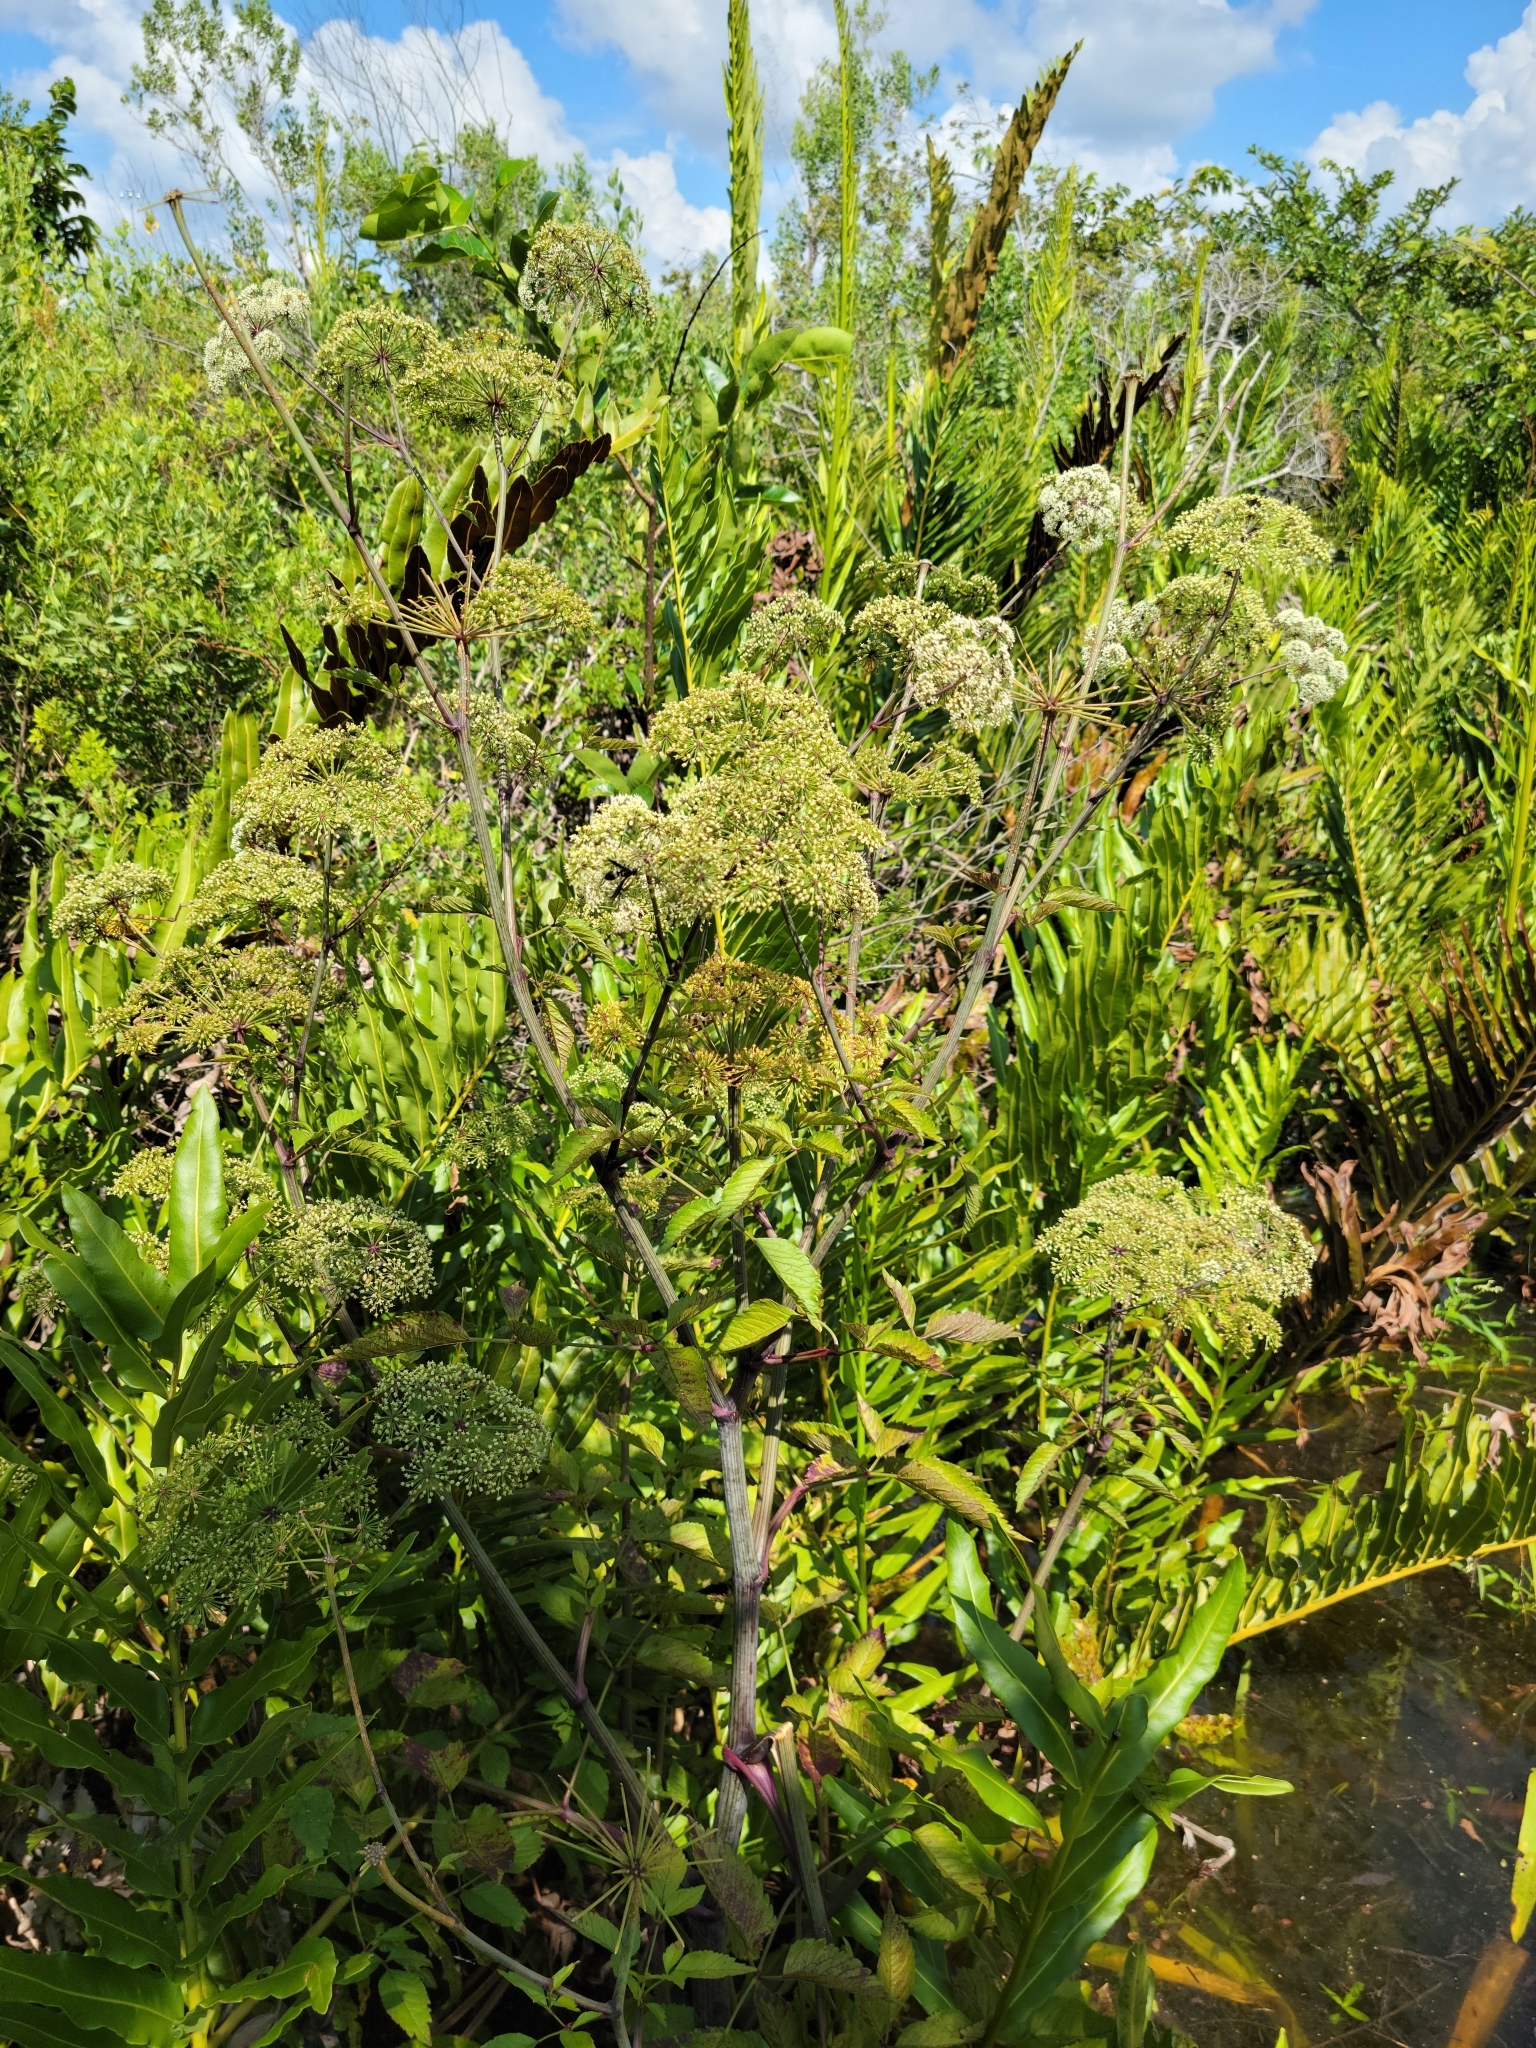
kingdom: Plantae
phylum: Tracheophyta
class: Magnoliopsida
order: Apiales
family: Apiaceae
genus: Cicuta
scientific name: Cicuta douglasii
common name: Western water-hemlock
